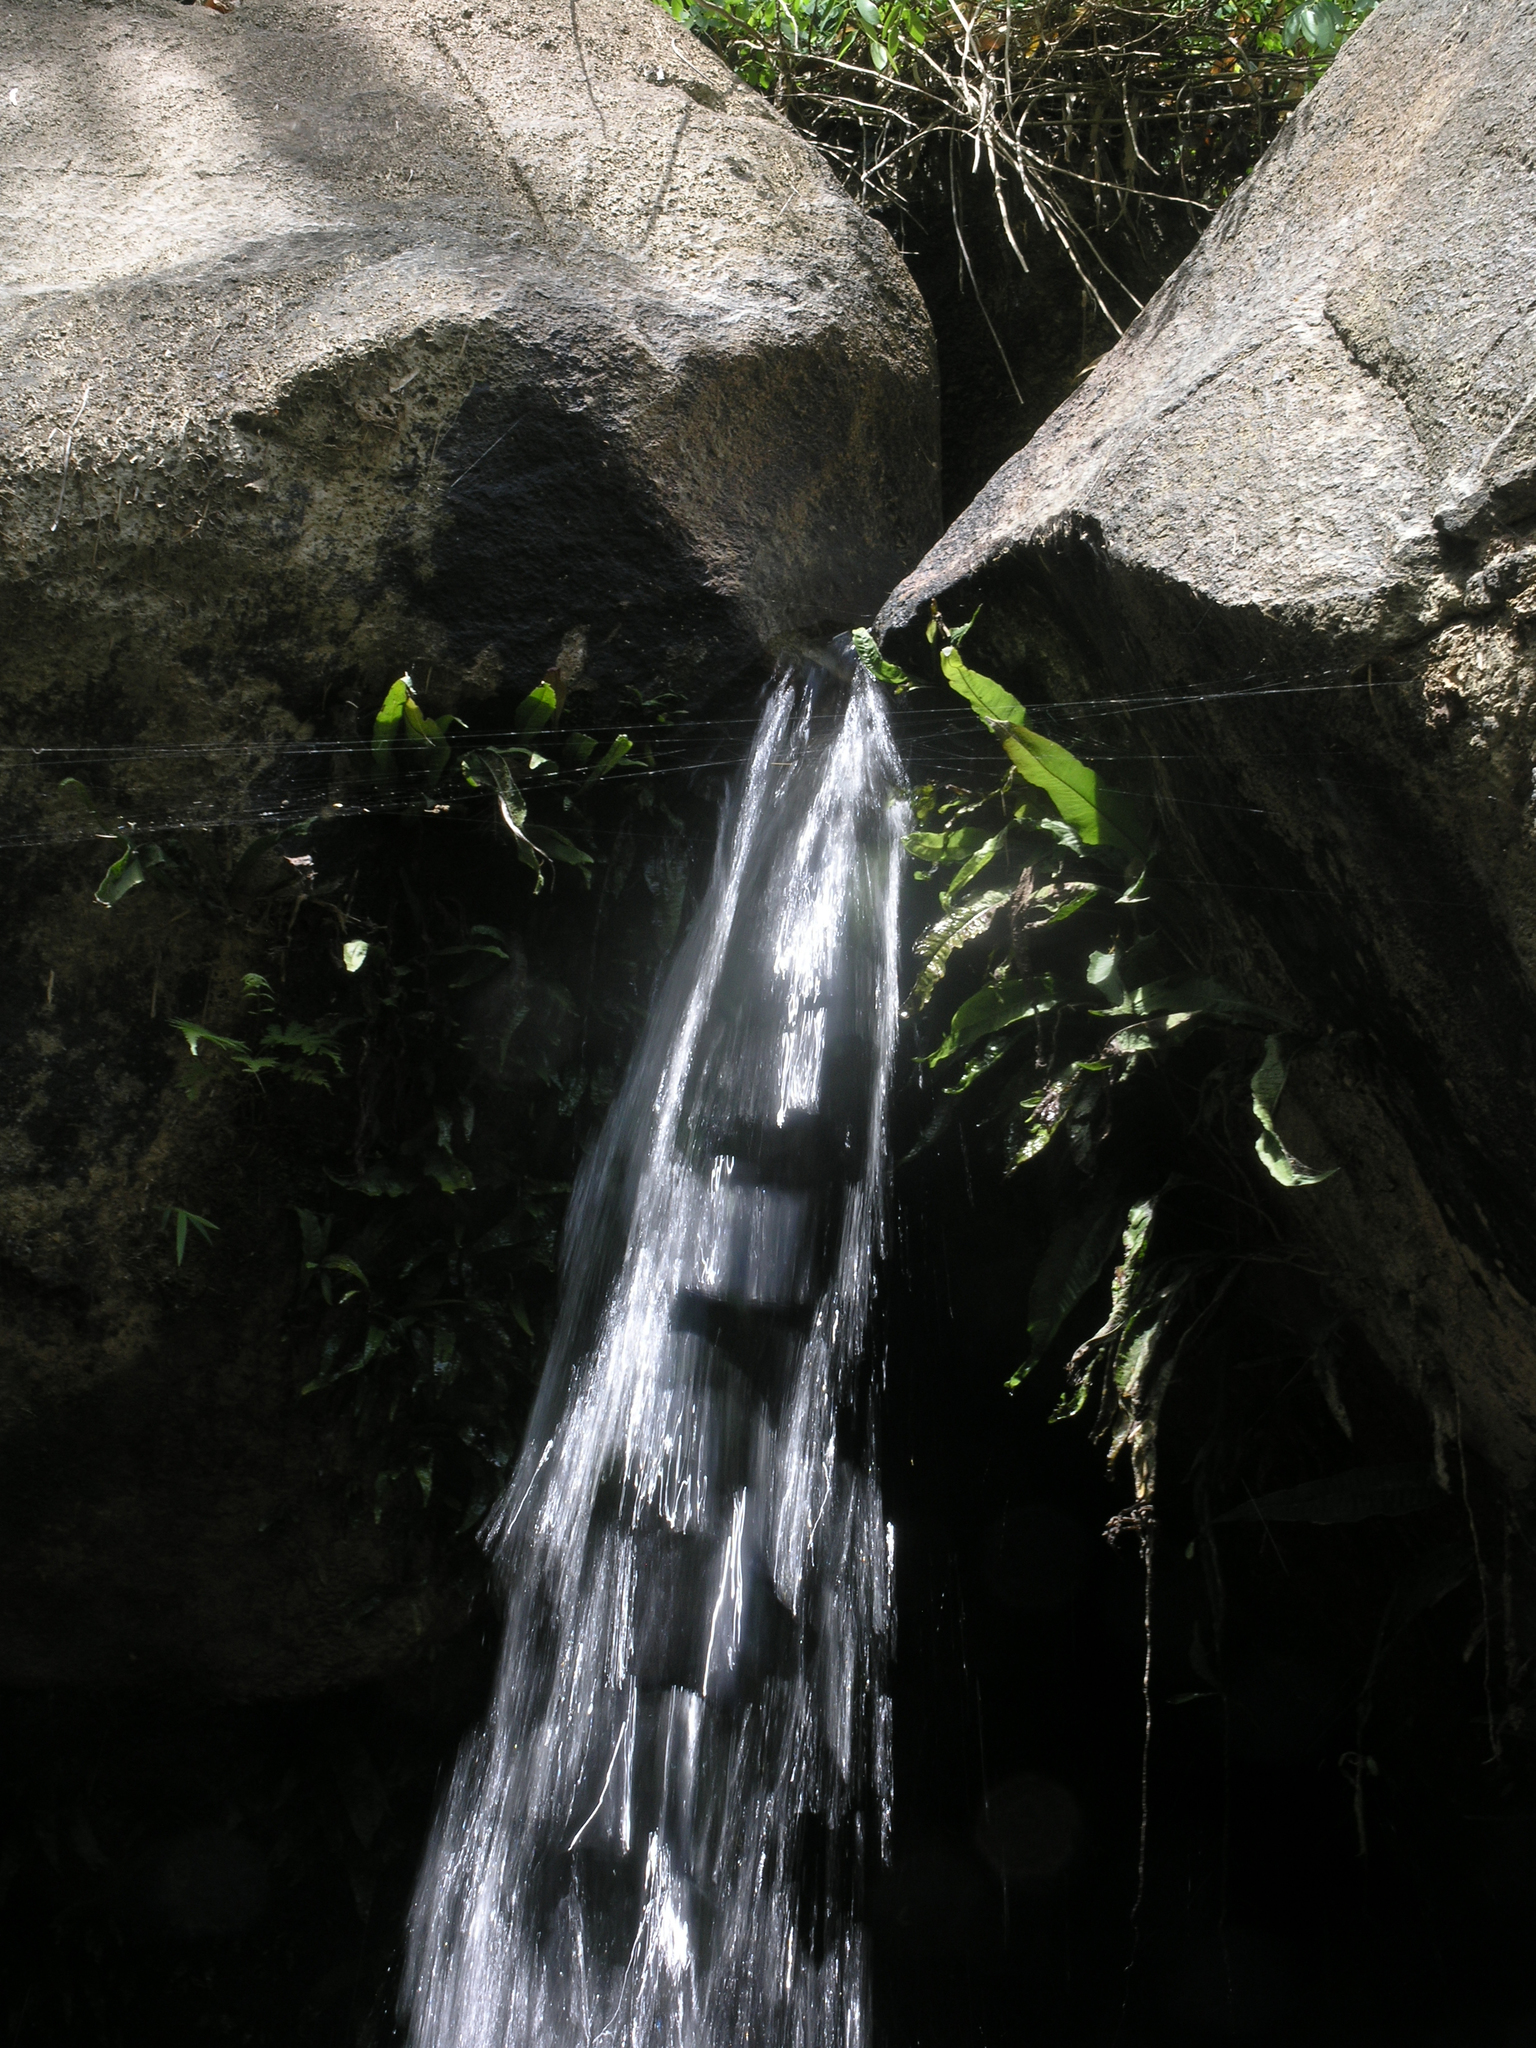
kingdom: Animalia
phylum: Arthropoda
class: Insecta
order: Odonata
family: Libellulidae
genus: Zygonyx
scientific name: Zygonyx iris
